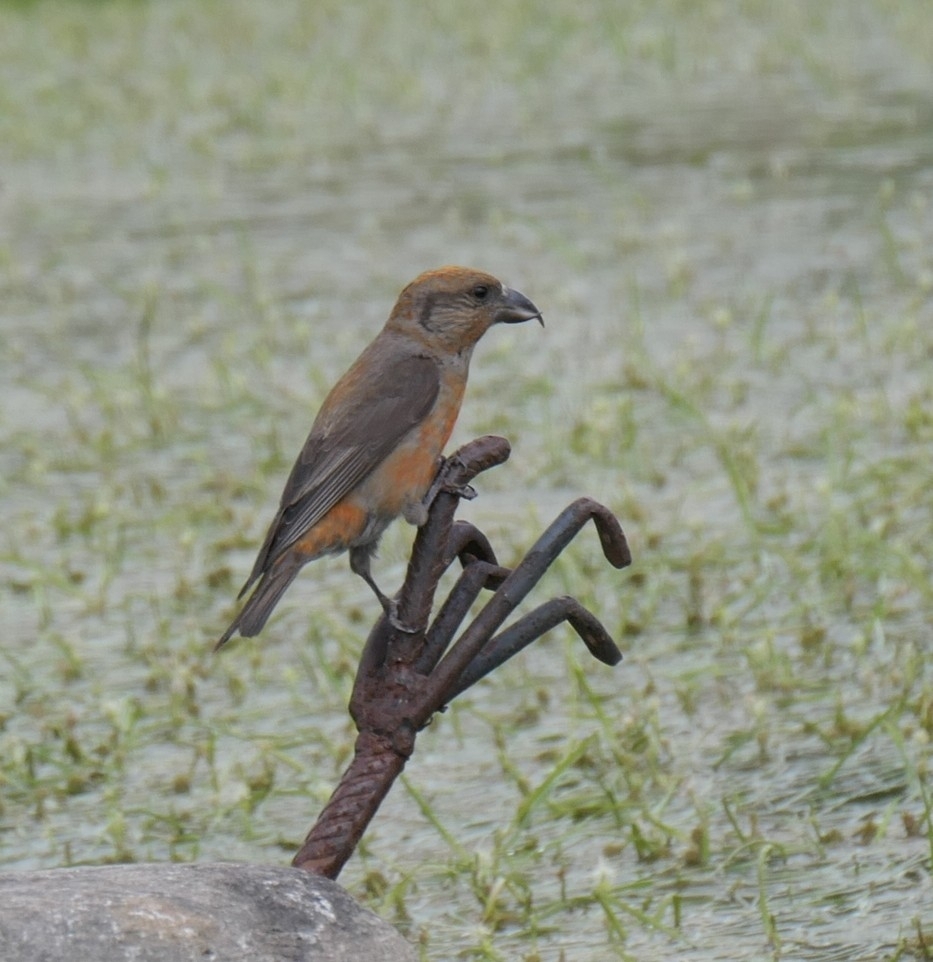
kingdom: Animalia
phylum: Chordata
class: Aves
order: Passeriformes
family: Fringillidae
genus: Loxia
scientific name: Loxia curvirostra
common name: Red crossbill
